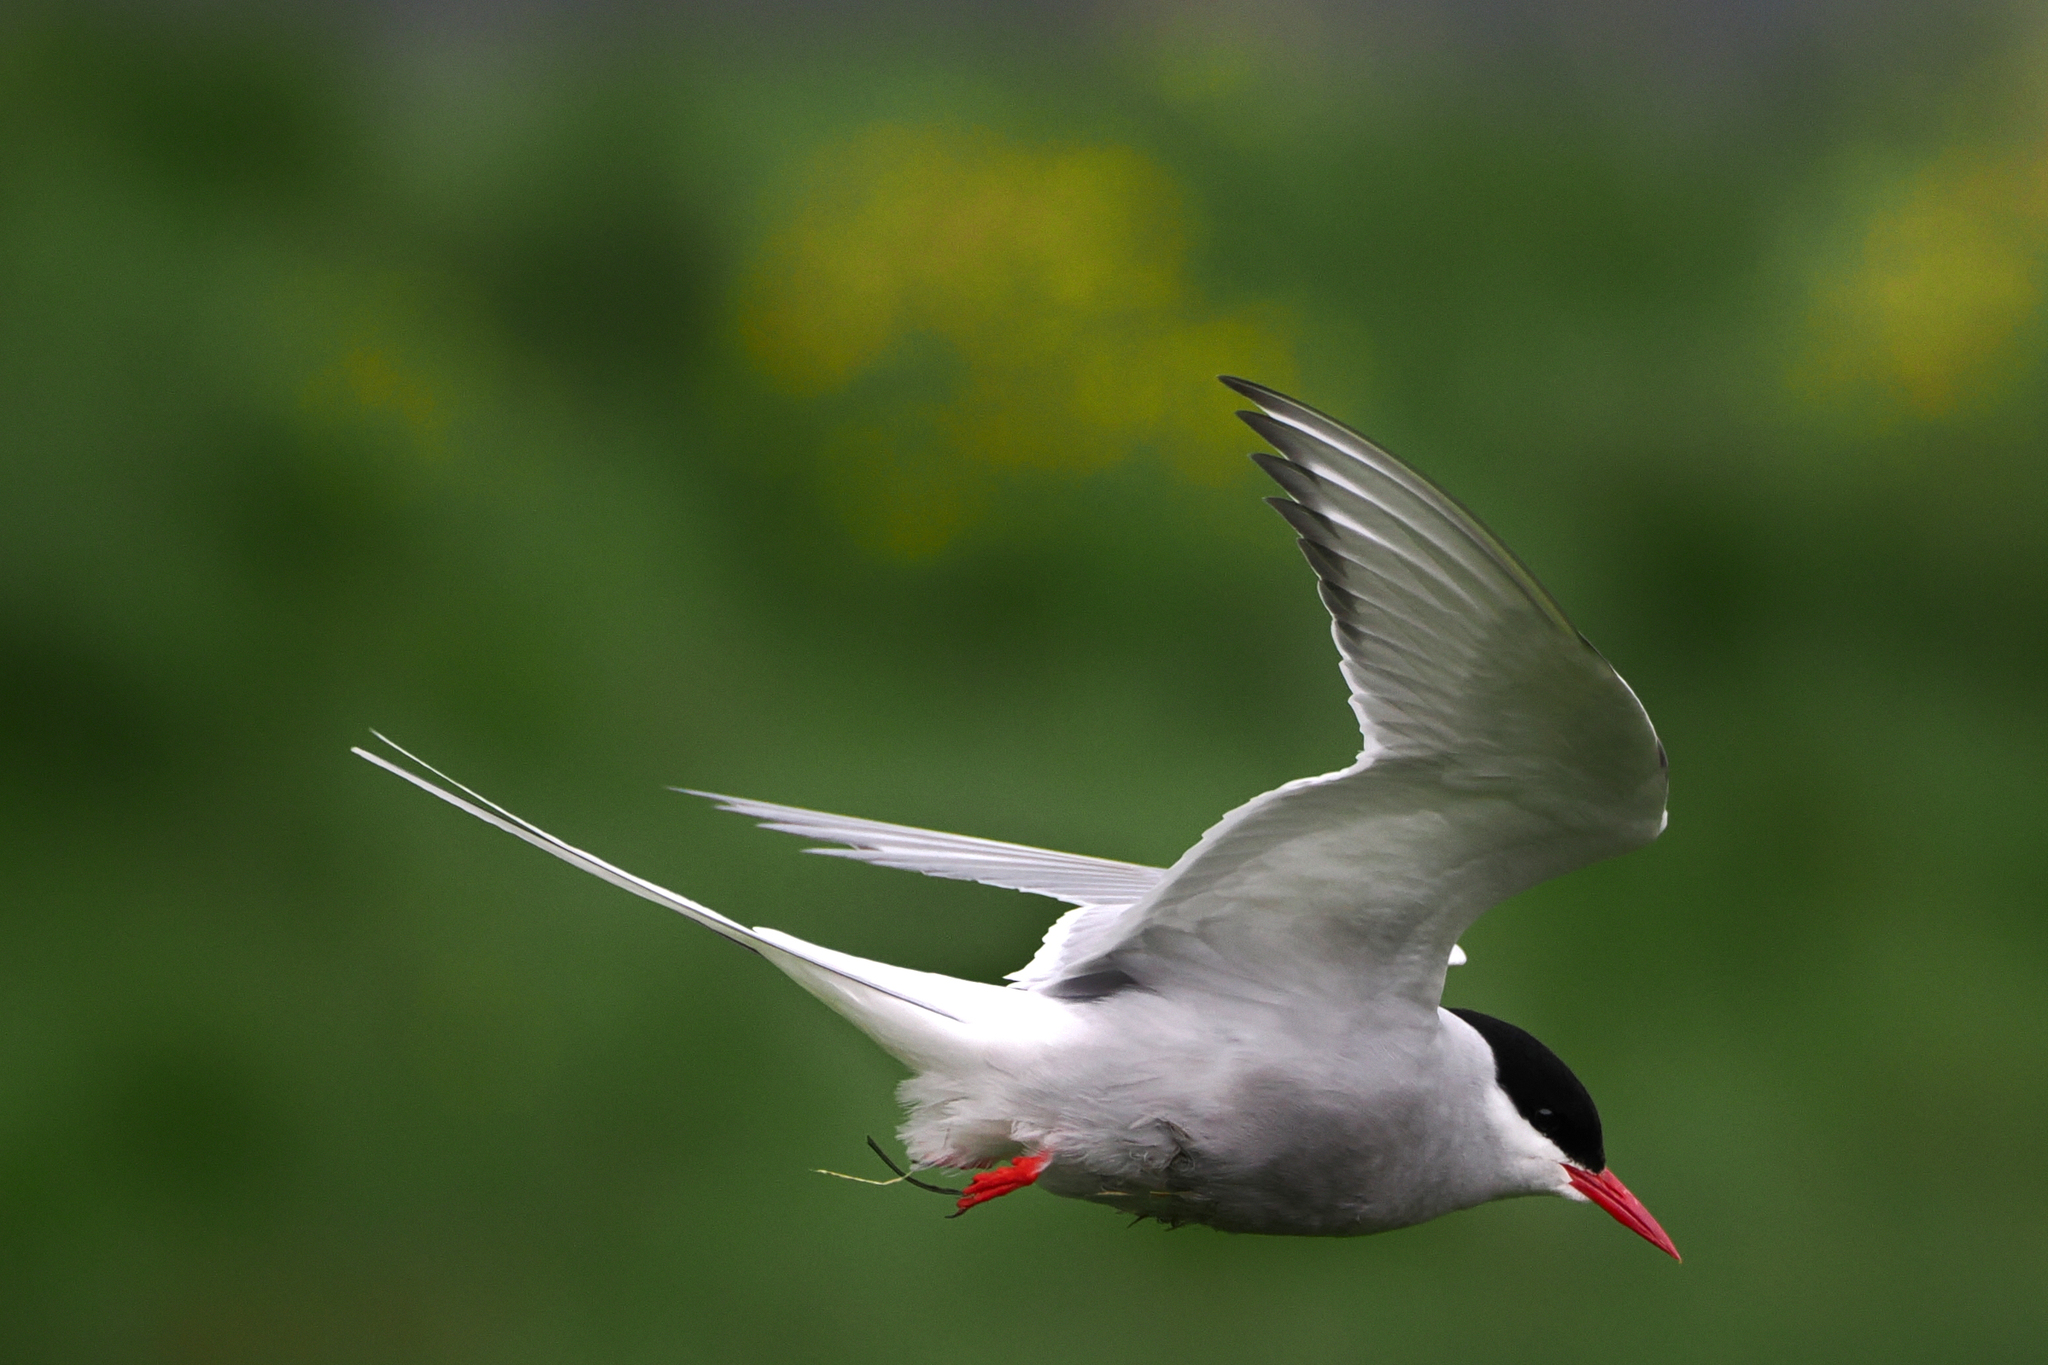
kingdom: Animalia
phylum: Chordata
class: Aves
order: Charadriiformes
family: Laridae
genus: Sterna
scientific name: Sterna paradisaea
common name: Arctic tern
